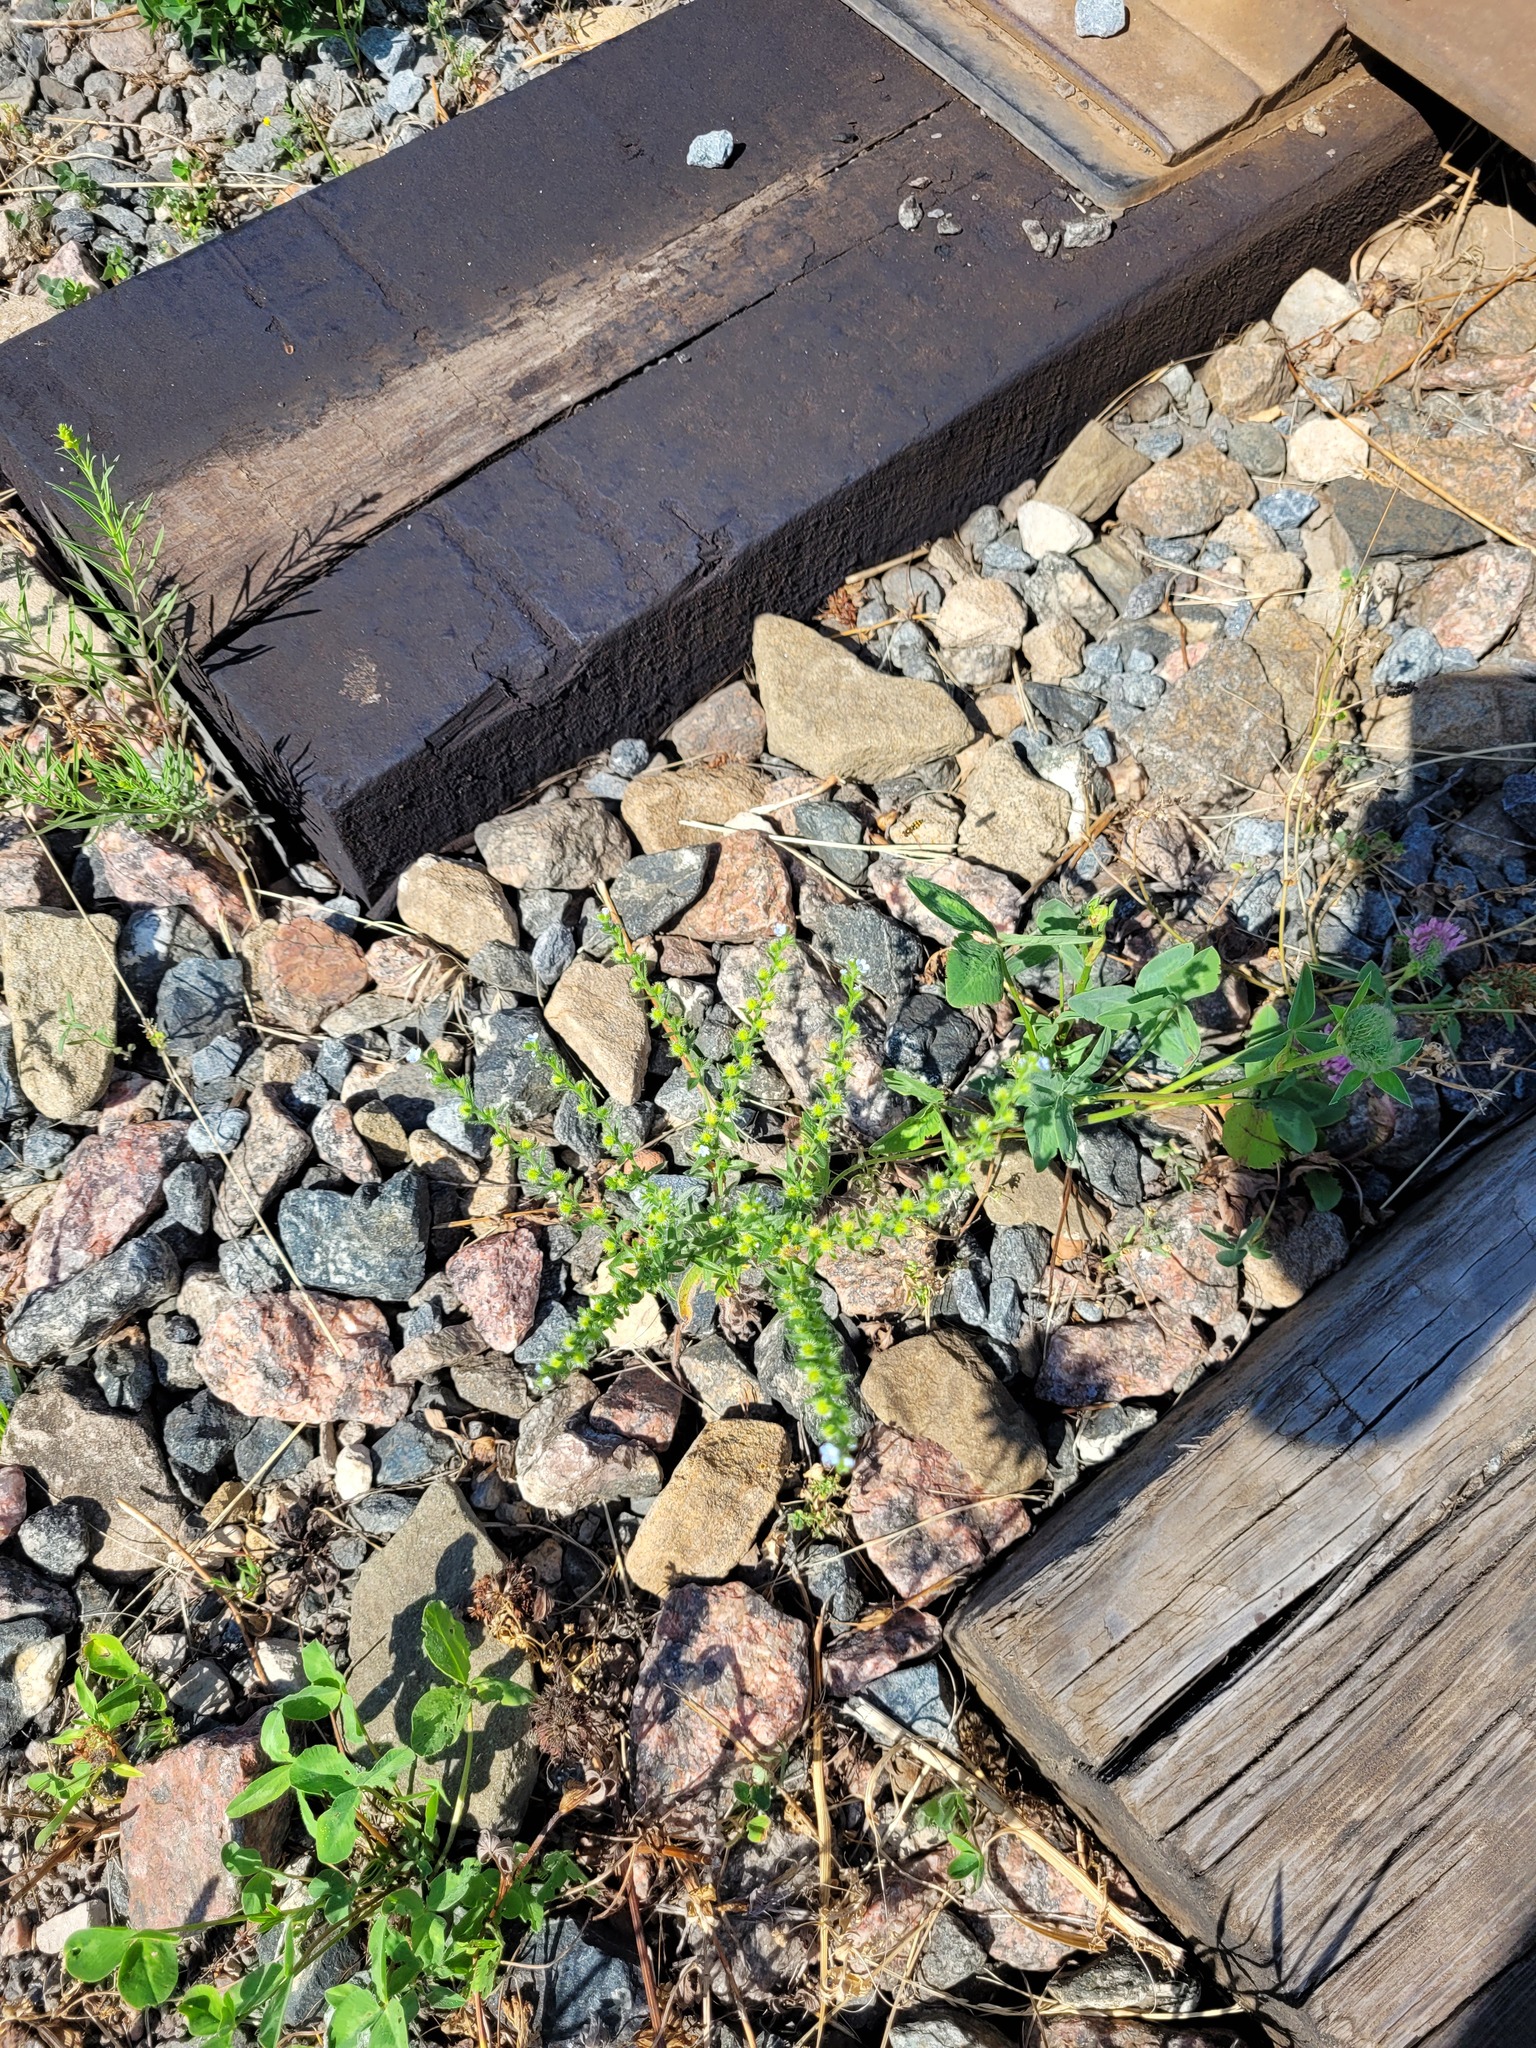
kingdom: Plantae
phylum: Tracheophyta
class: Magnoliopsida
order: Boraginales
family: Boraginaceae
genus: Lappula
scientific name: Lappula squarrosa
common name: European stickseed
